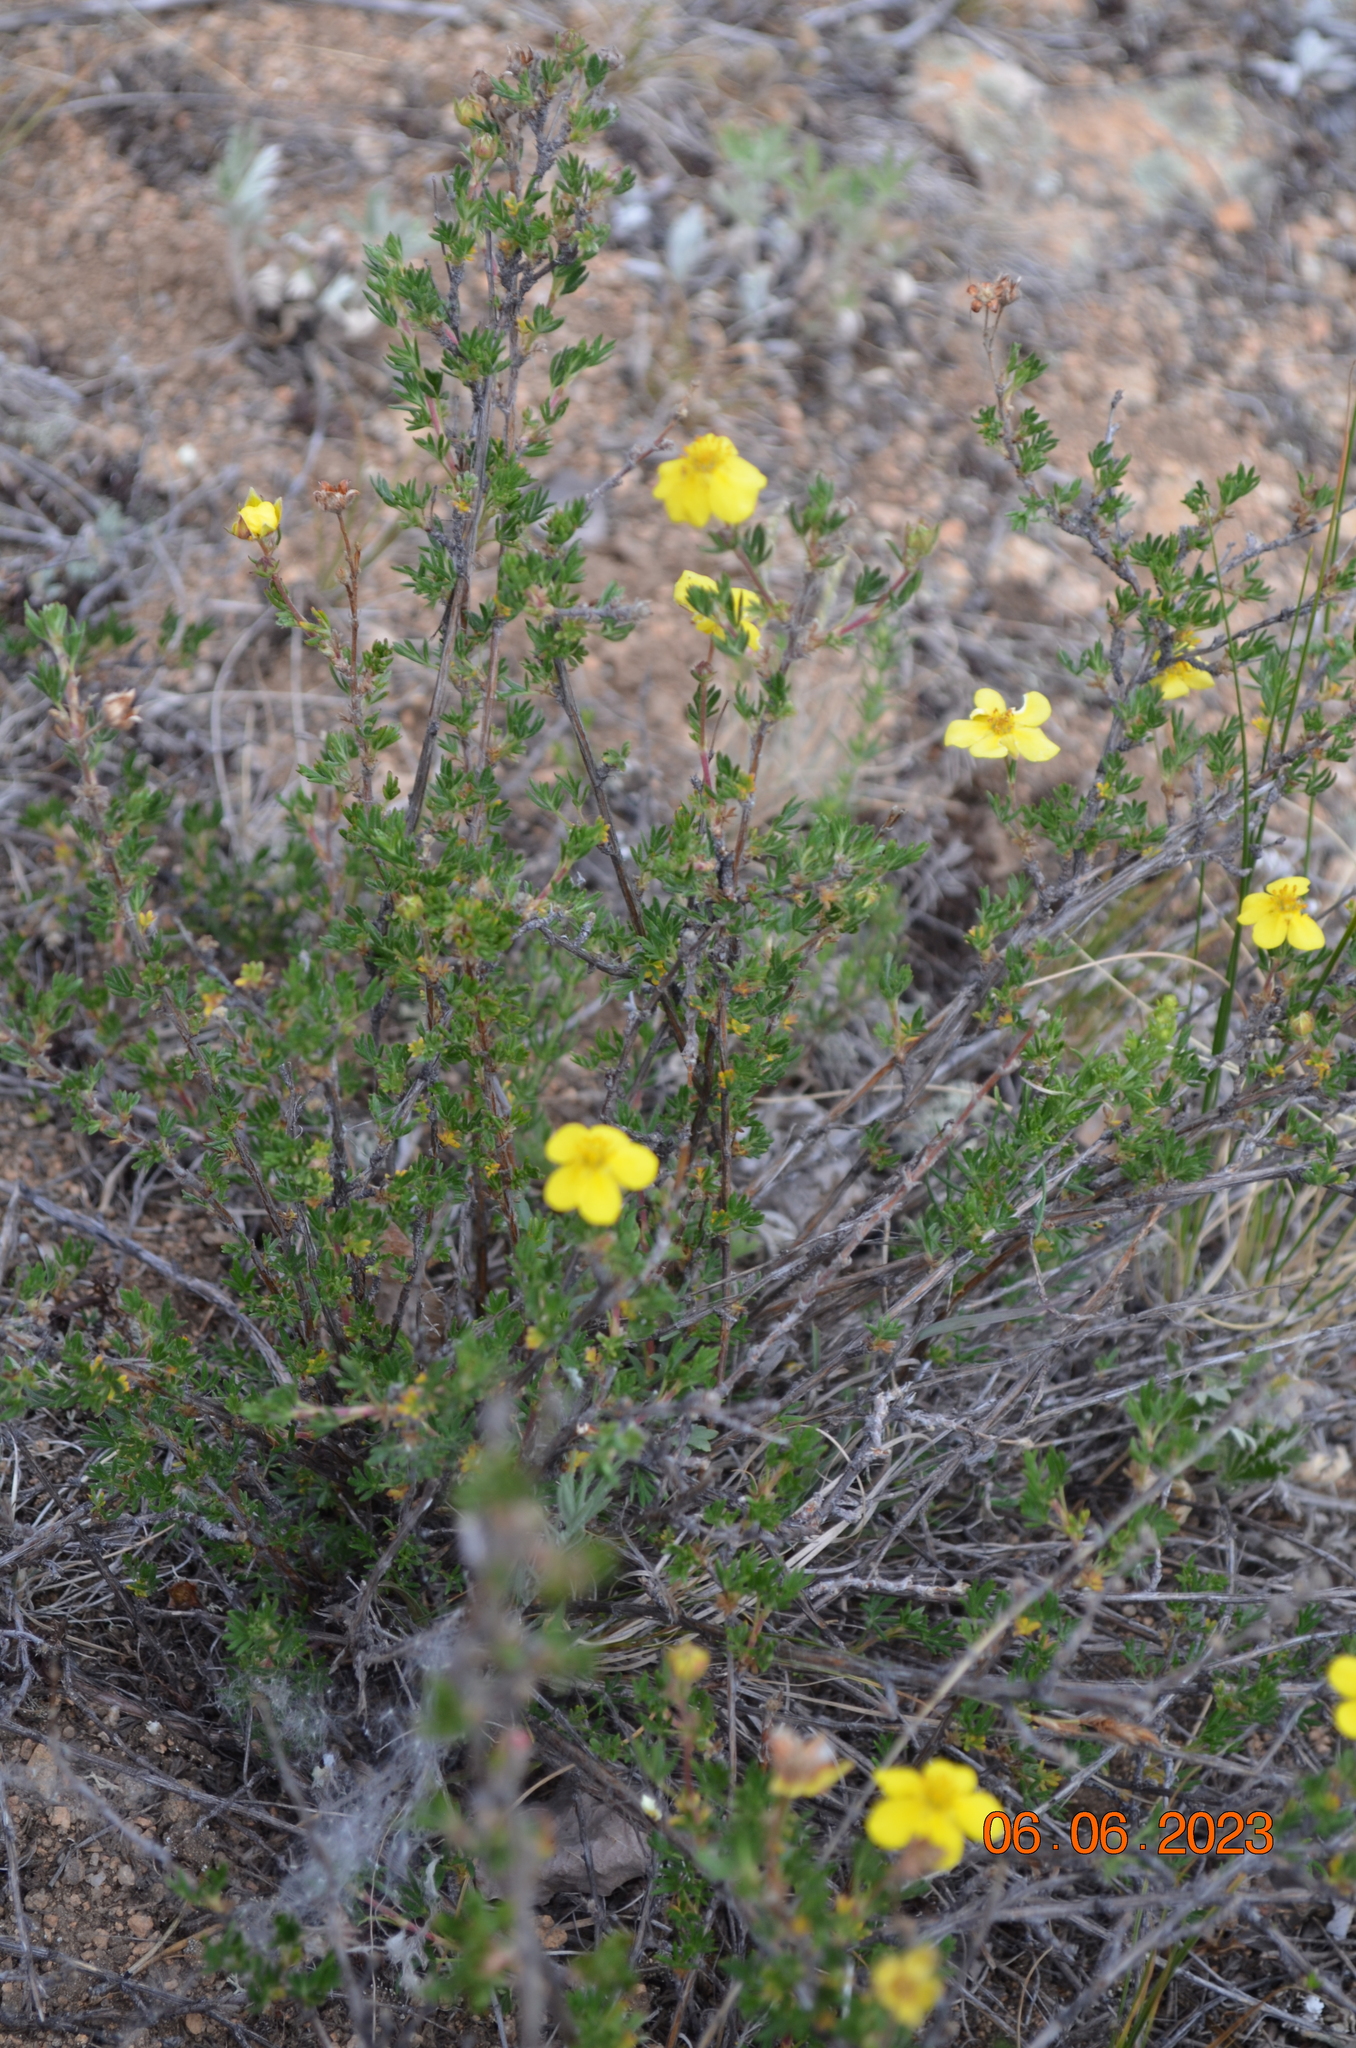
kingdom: Plantae
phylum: Tracheophyta
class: Magnoliopsida
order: Rosales
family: Rosaceae
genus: Dasiphora
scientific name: Dasiphora parvifolia
